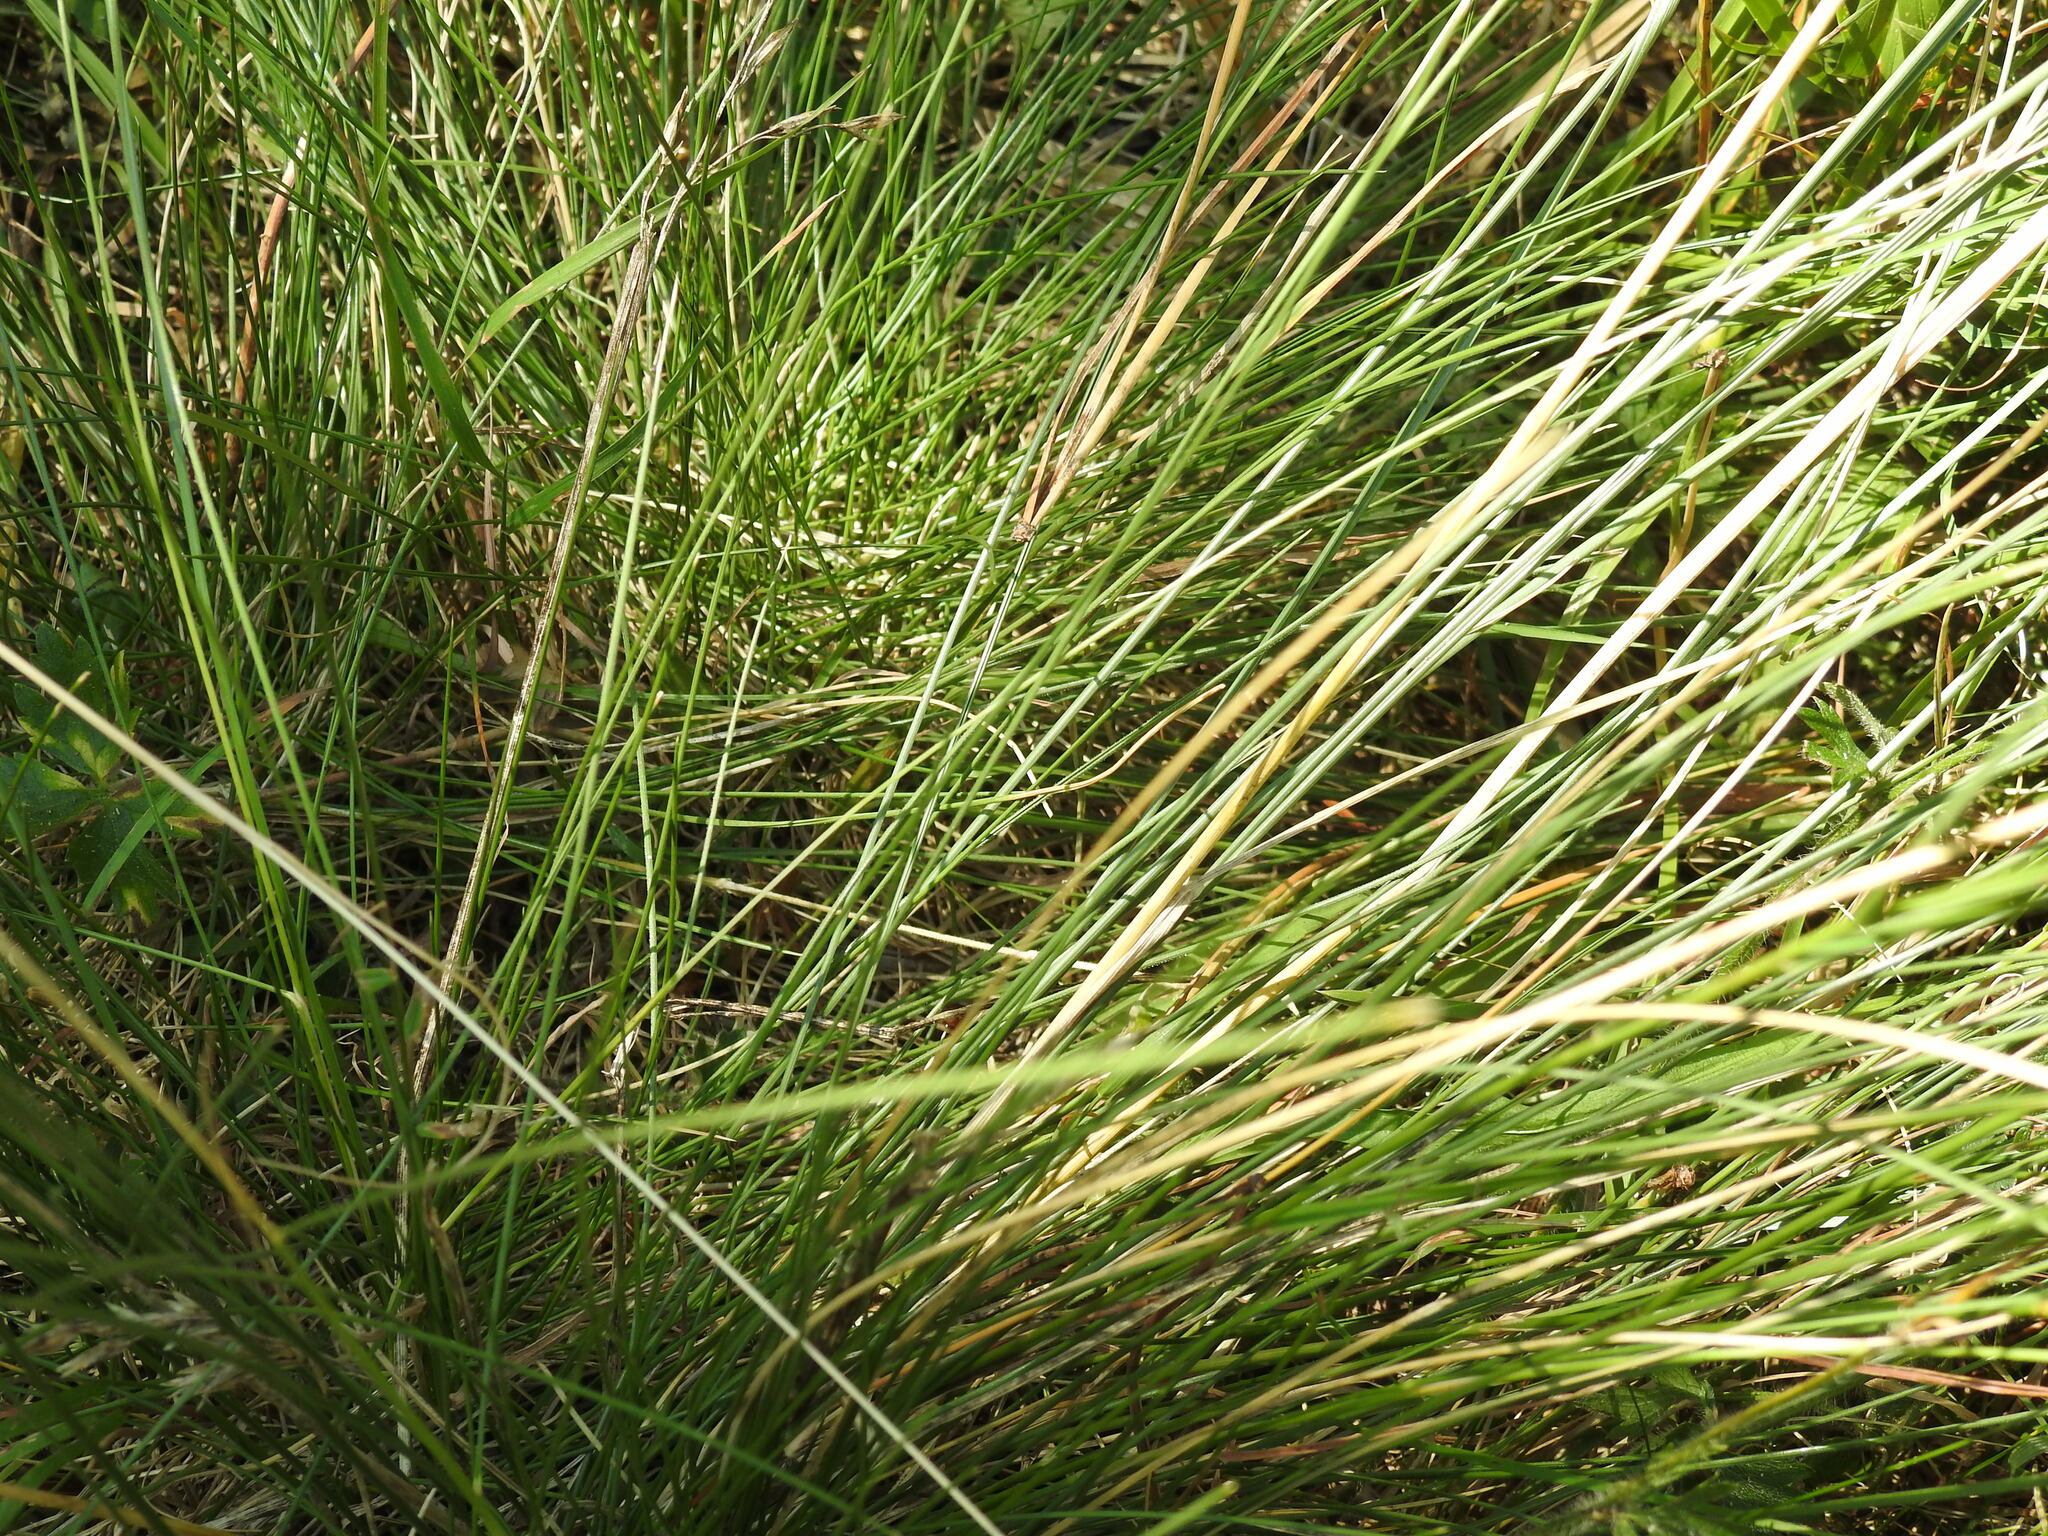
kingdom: Plantae
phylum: Tracheophyta
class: Liliopsida
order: Poales
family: Poaceae
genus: Nardus
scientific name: Nardus stricta
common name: Mat-grass
